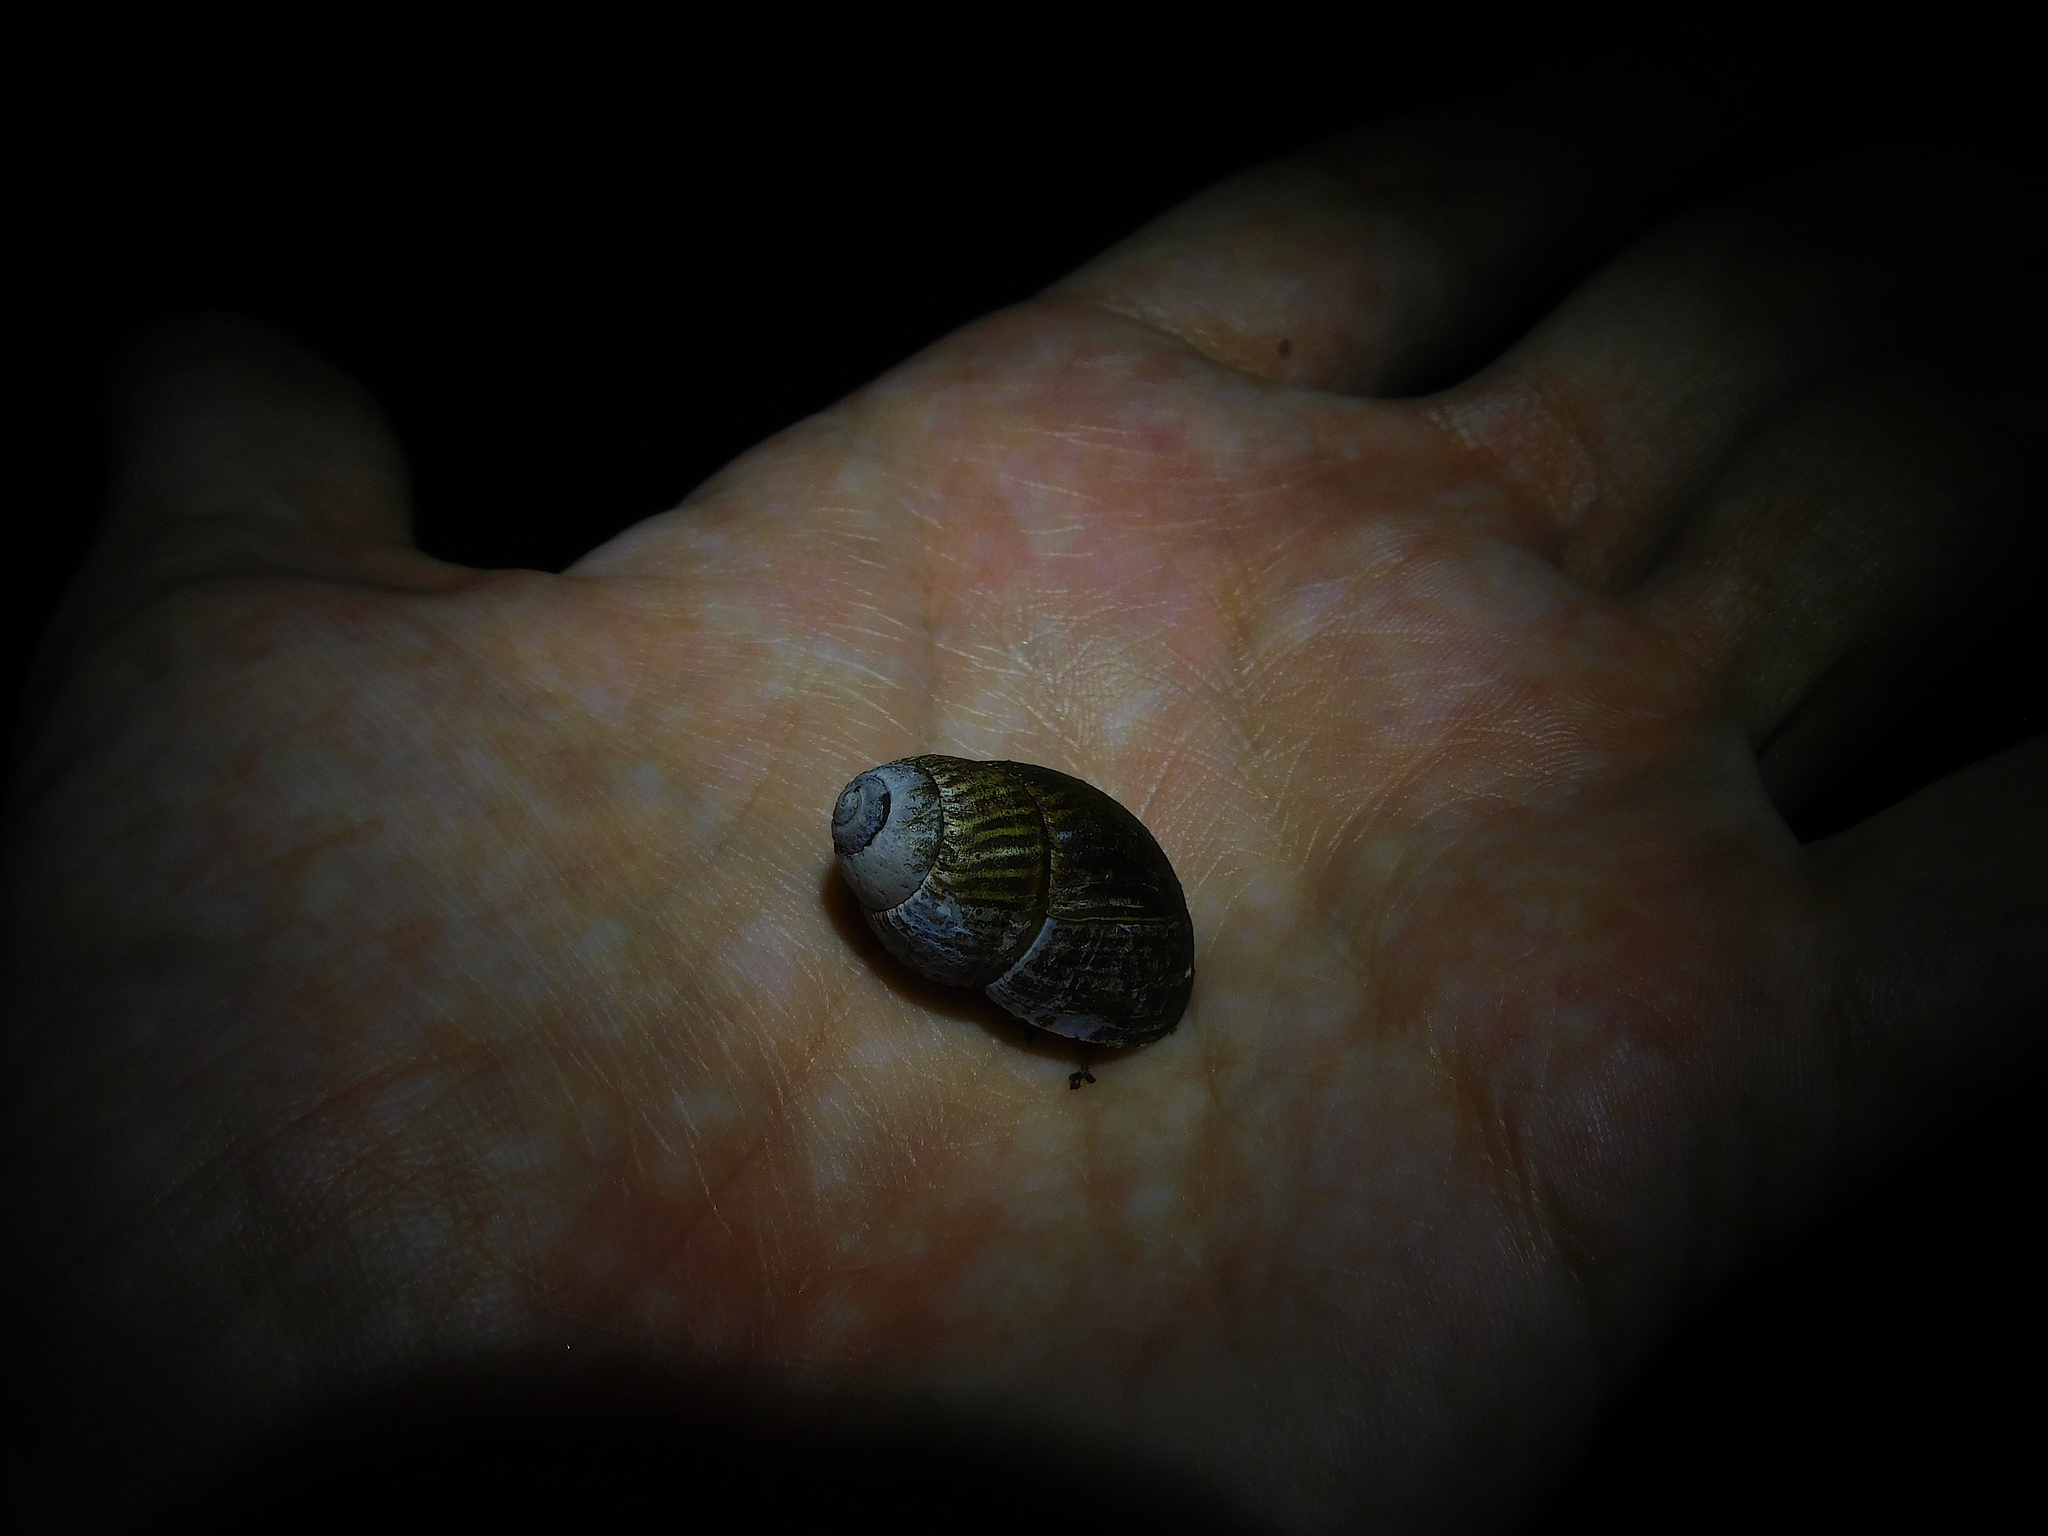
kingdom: Animalia
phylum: Mollusca
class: Gastropoda
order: Stylommatophora
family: Caryodidae
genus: Caryodes
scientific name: Caryodes dufresnii
